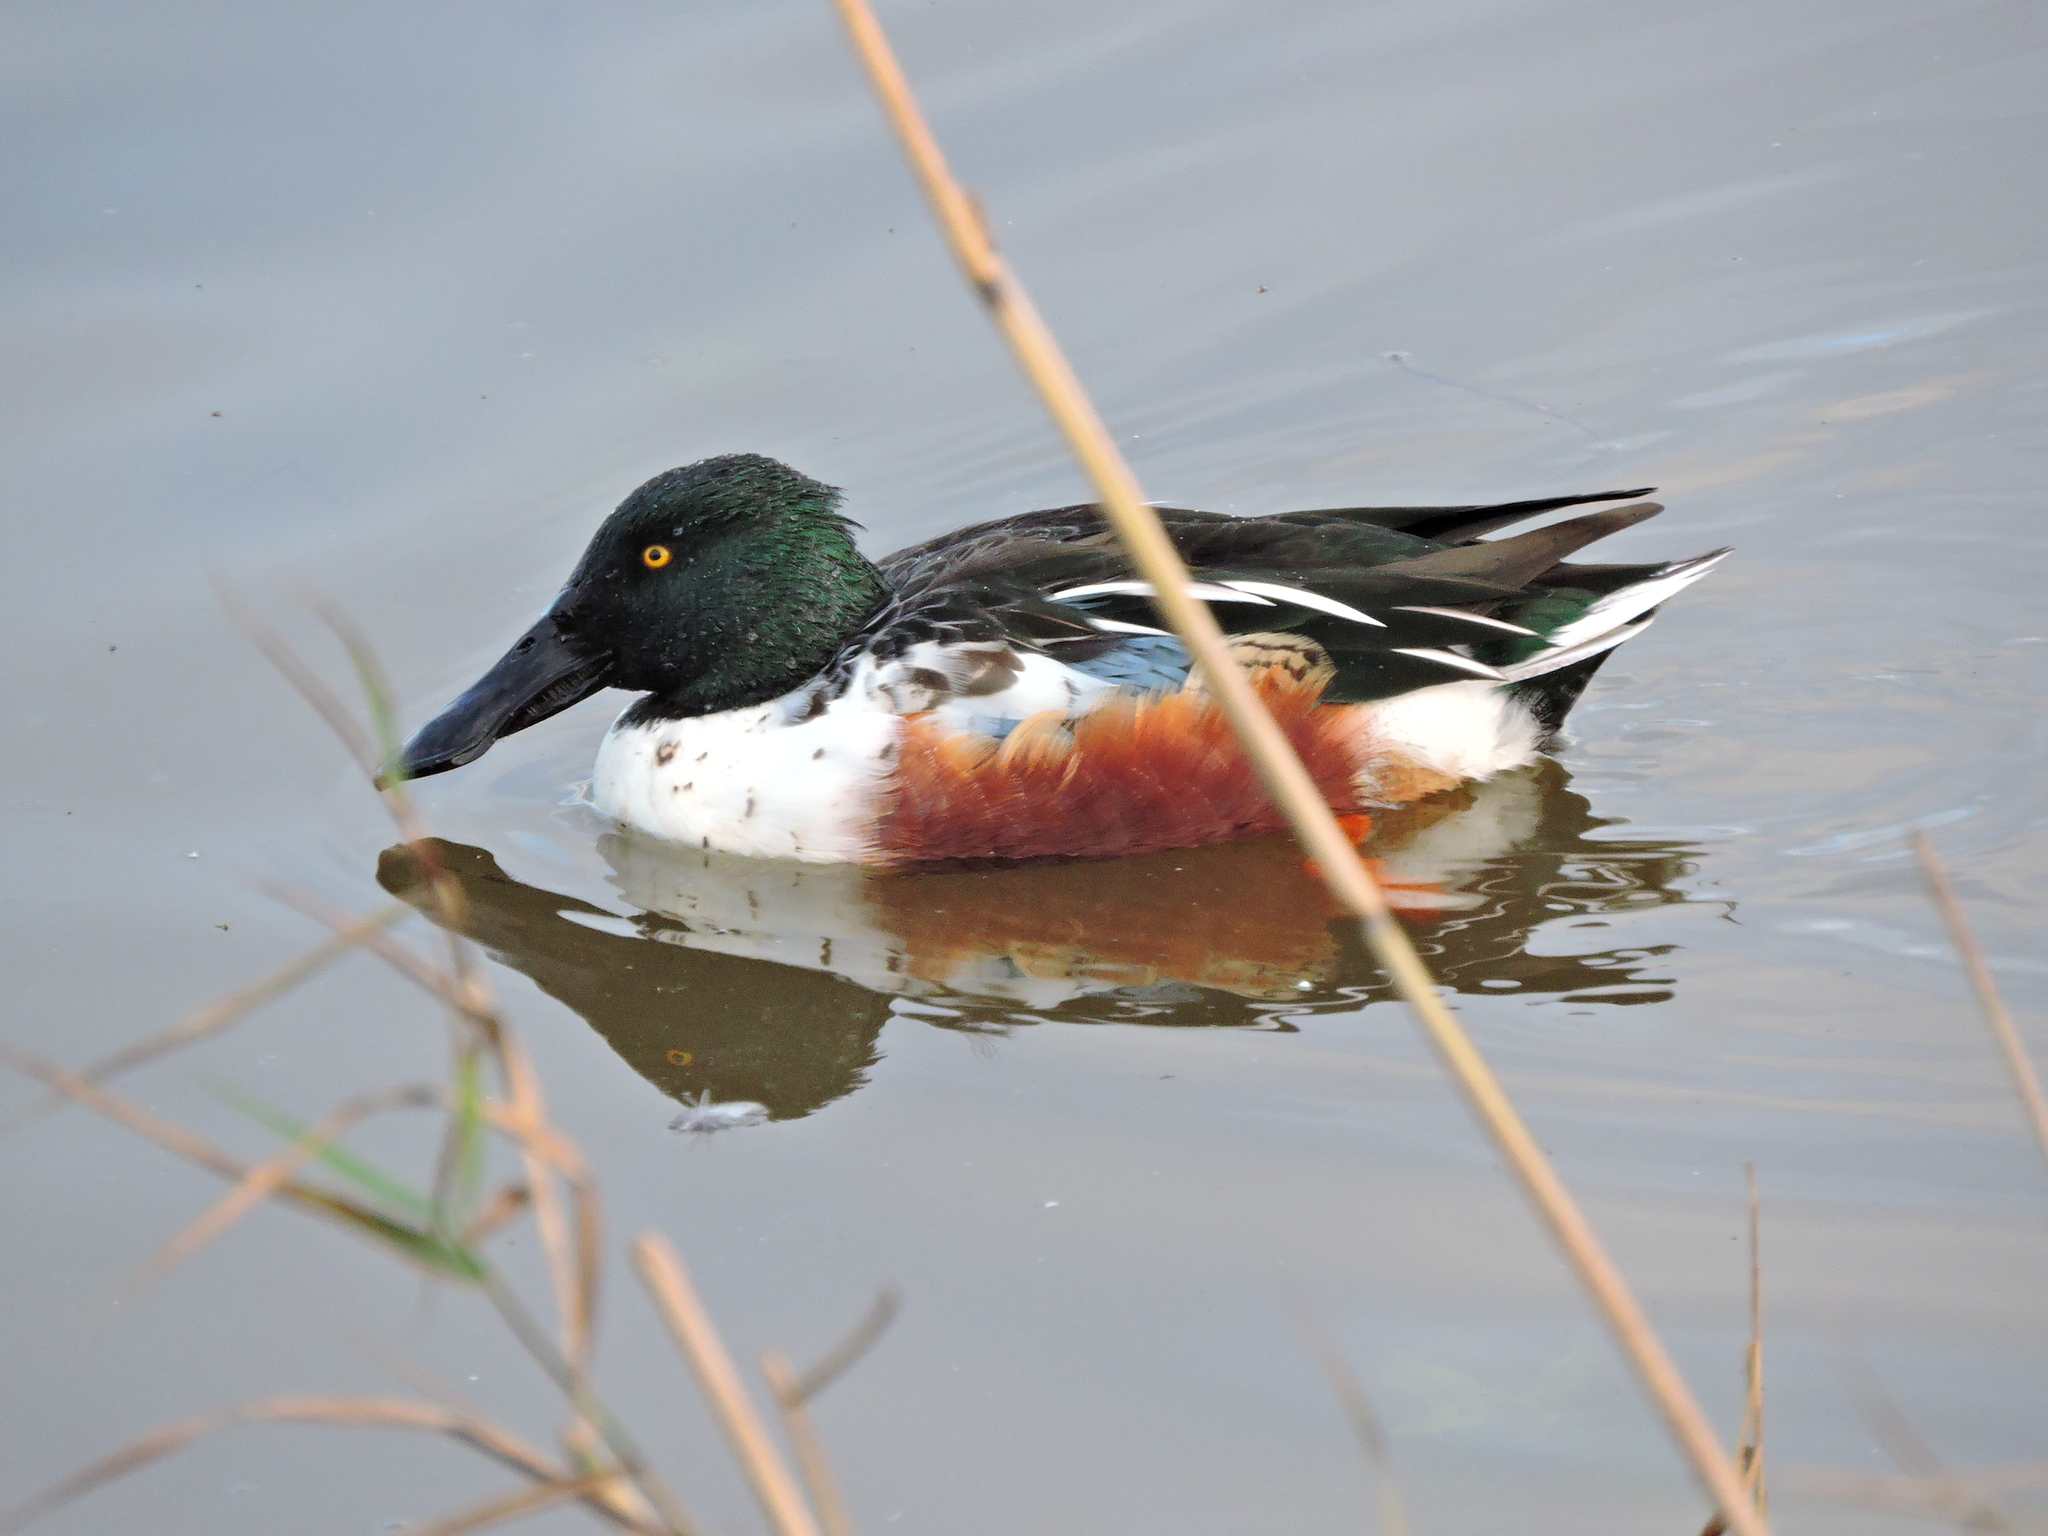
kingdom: Animalia
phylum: Chordata
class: Aves
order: Anseriformes
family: Anatidae
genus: Spatula
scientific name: Spatula clypeata
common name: Northern shoveler
